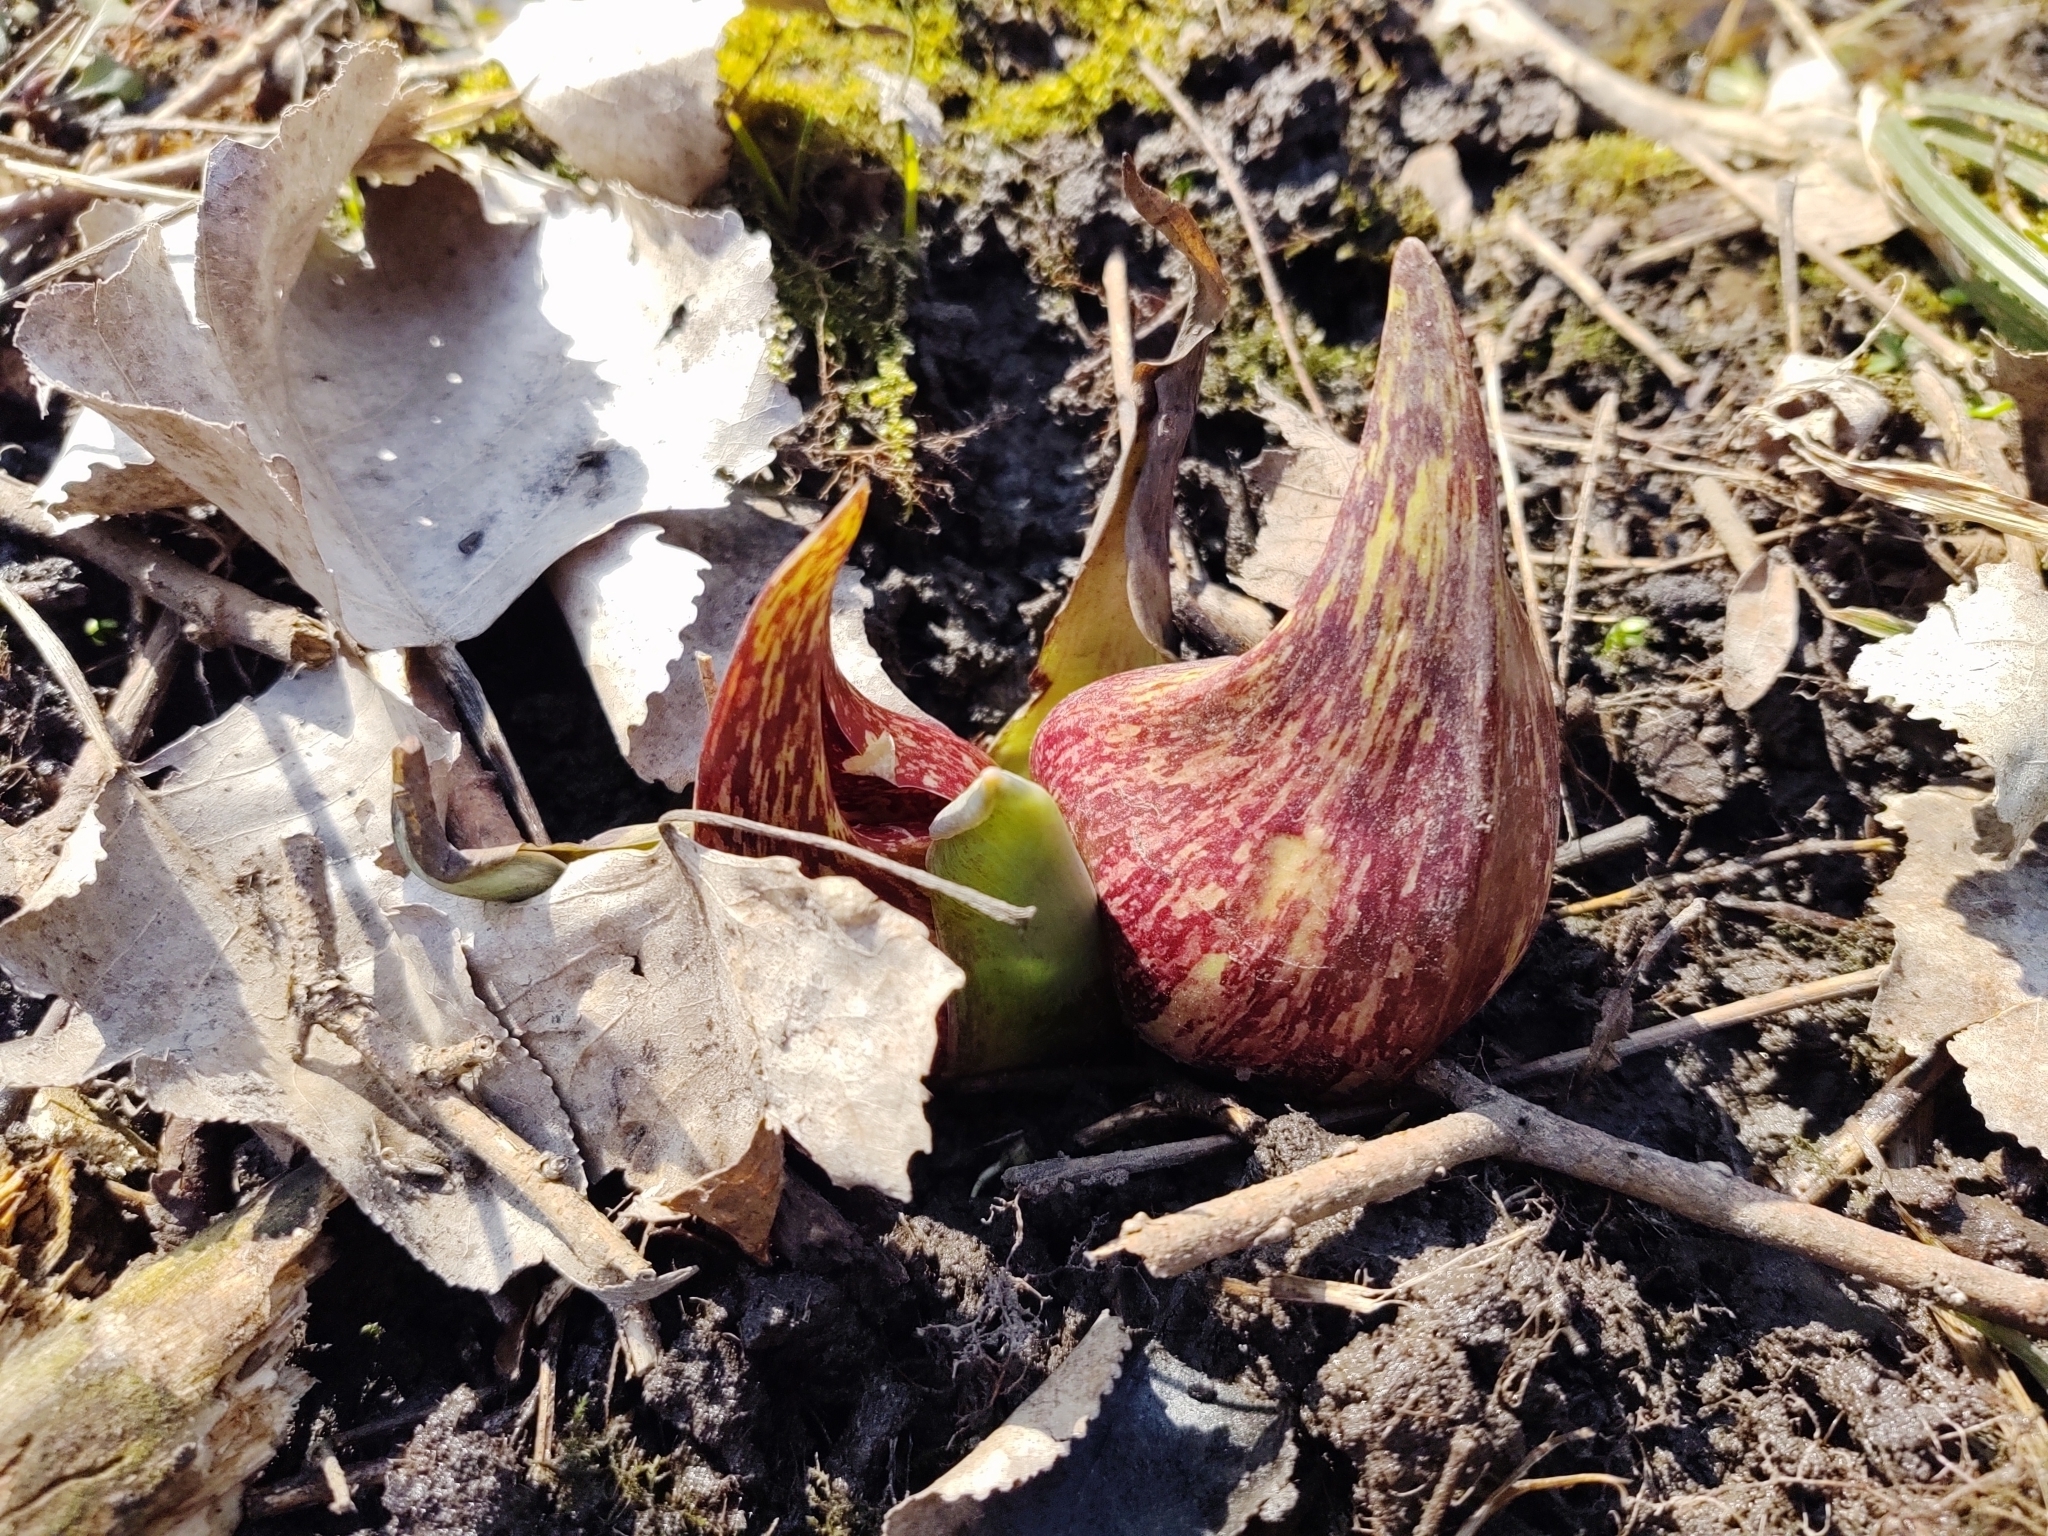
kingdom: Plantae
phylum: Tracheophyta
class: Liliopsida
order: Alismatales
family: Araceae
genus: Symplocarpus
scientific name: Symplocarpus foetidus
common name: Eastern skunk cabbage
